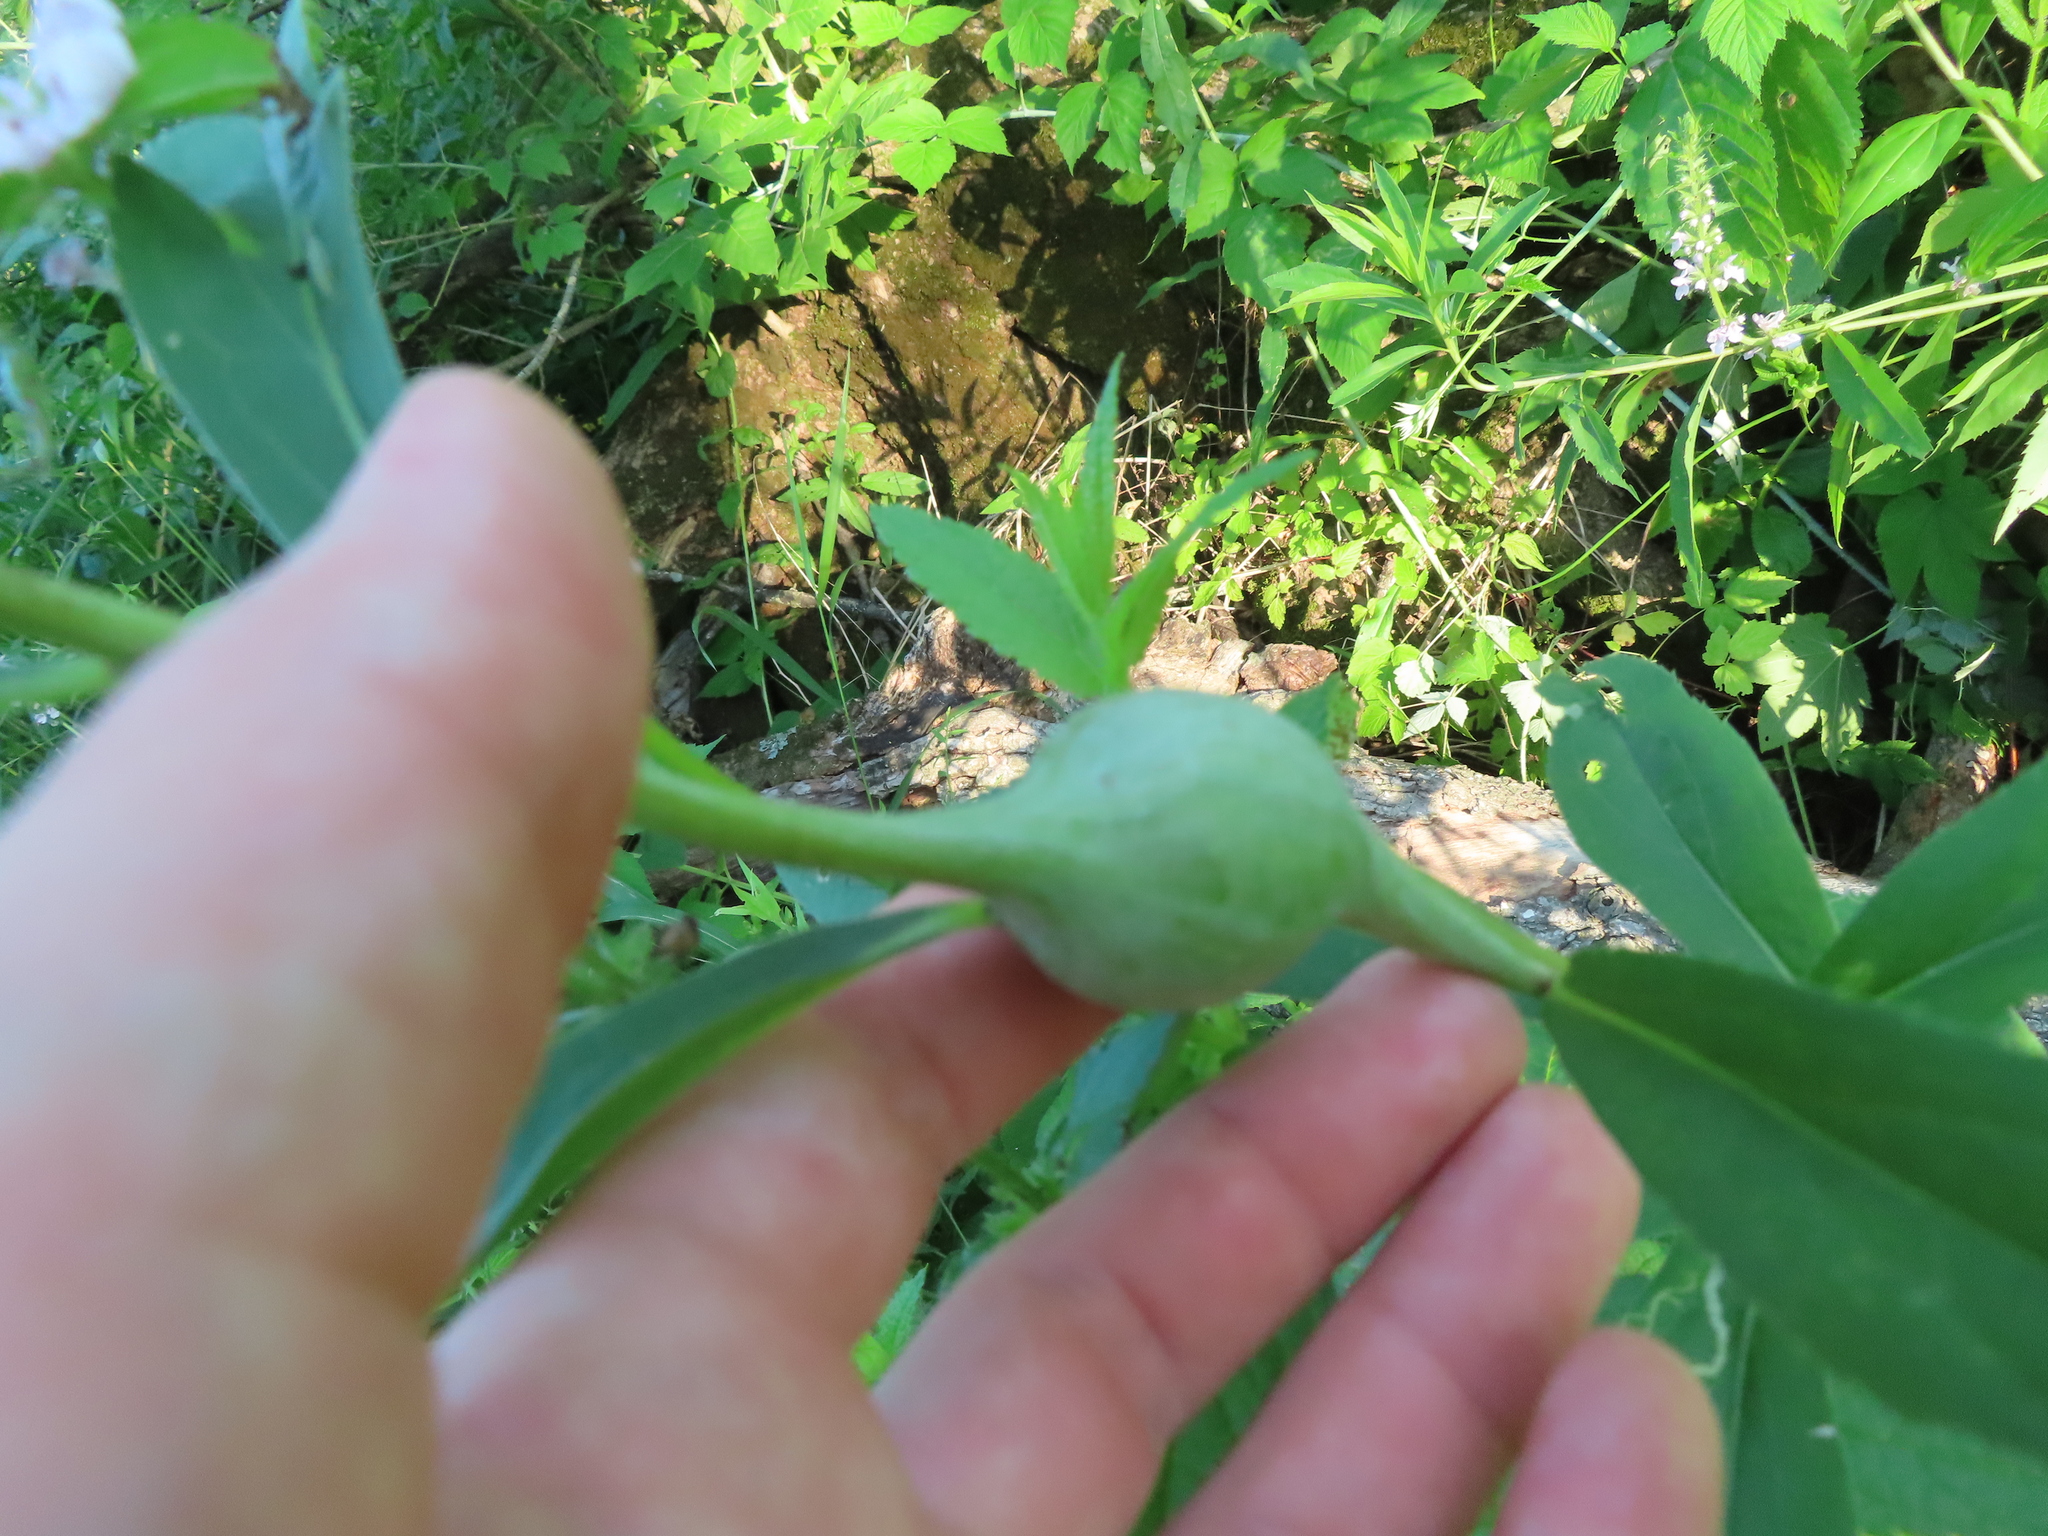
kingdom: Animalia
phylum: Arthropoda
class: Insecta
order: Diptera
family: Tephritidae
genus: Eurosta
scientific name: Eurosta solidaginis
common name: Goldenrod gall fly
